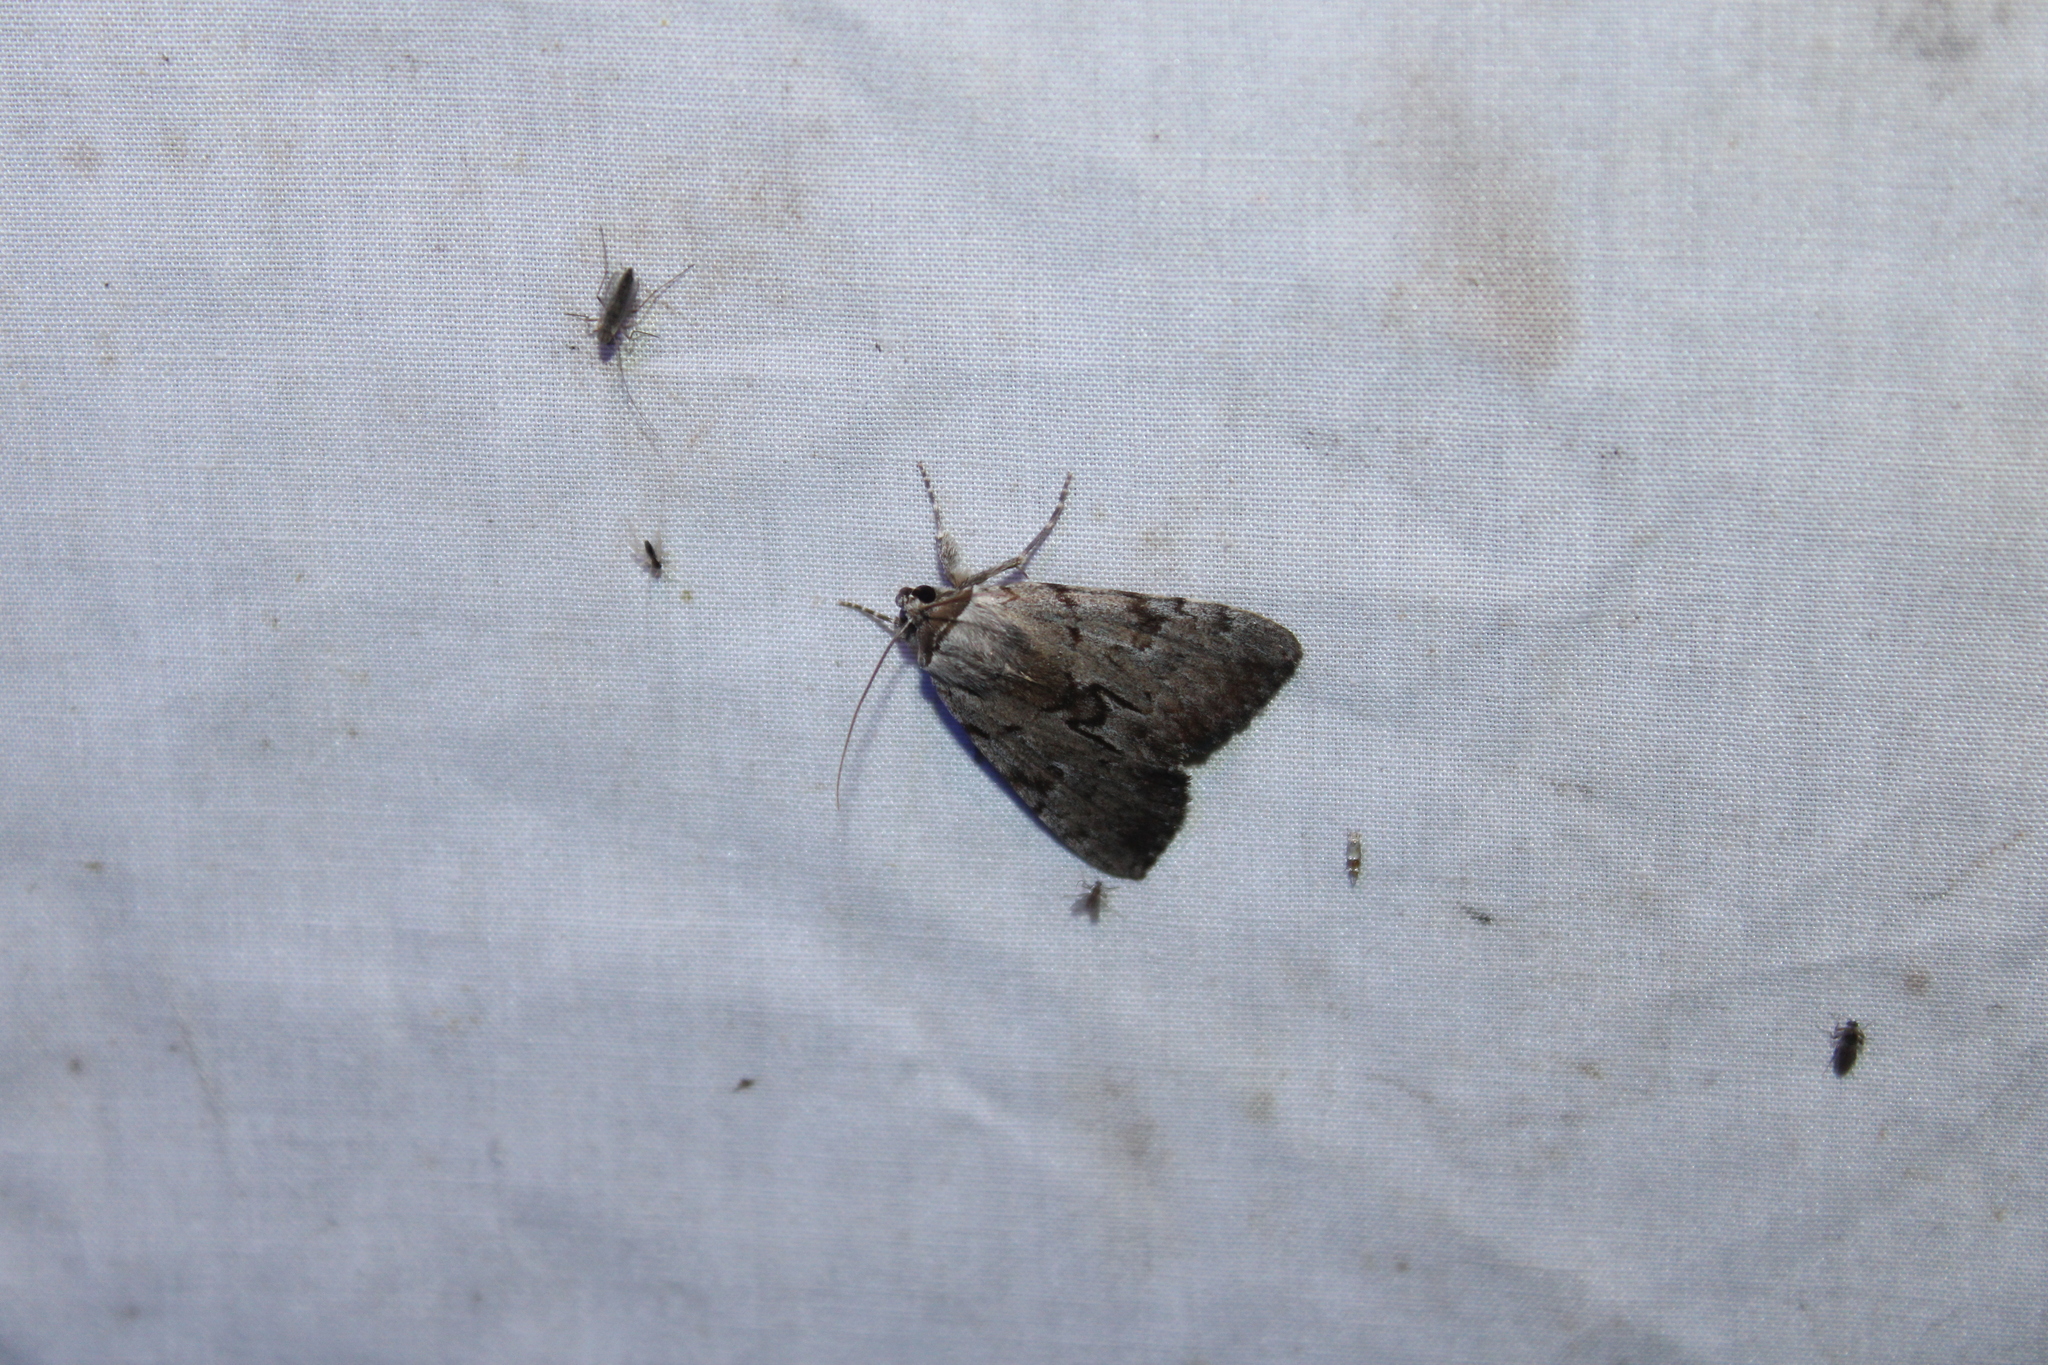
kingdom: Animalia
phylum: Arthropoda
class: Insecta
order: Lepidoptera
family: Erebidae
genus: Catocala
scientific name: Catocala sordida
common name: Sordid underwing
